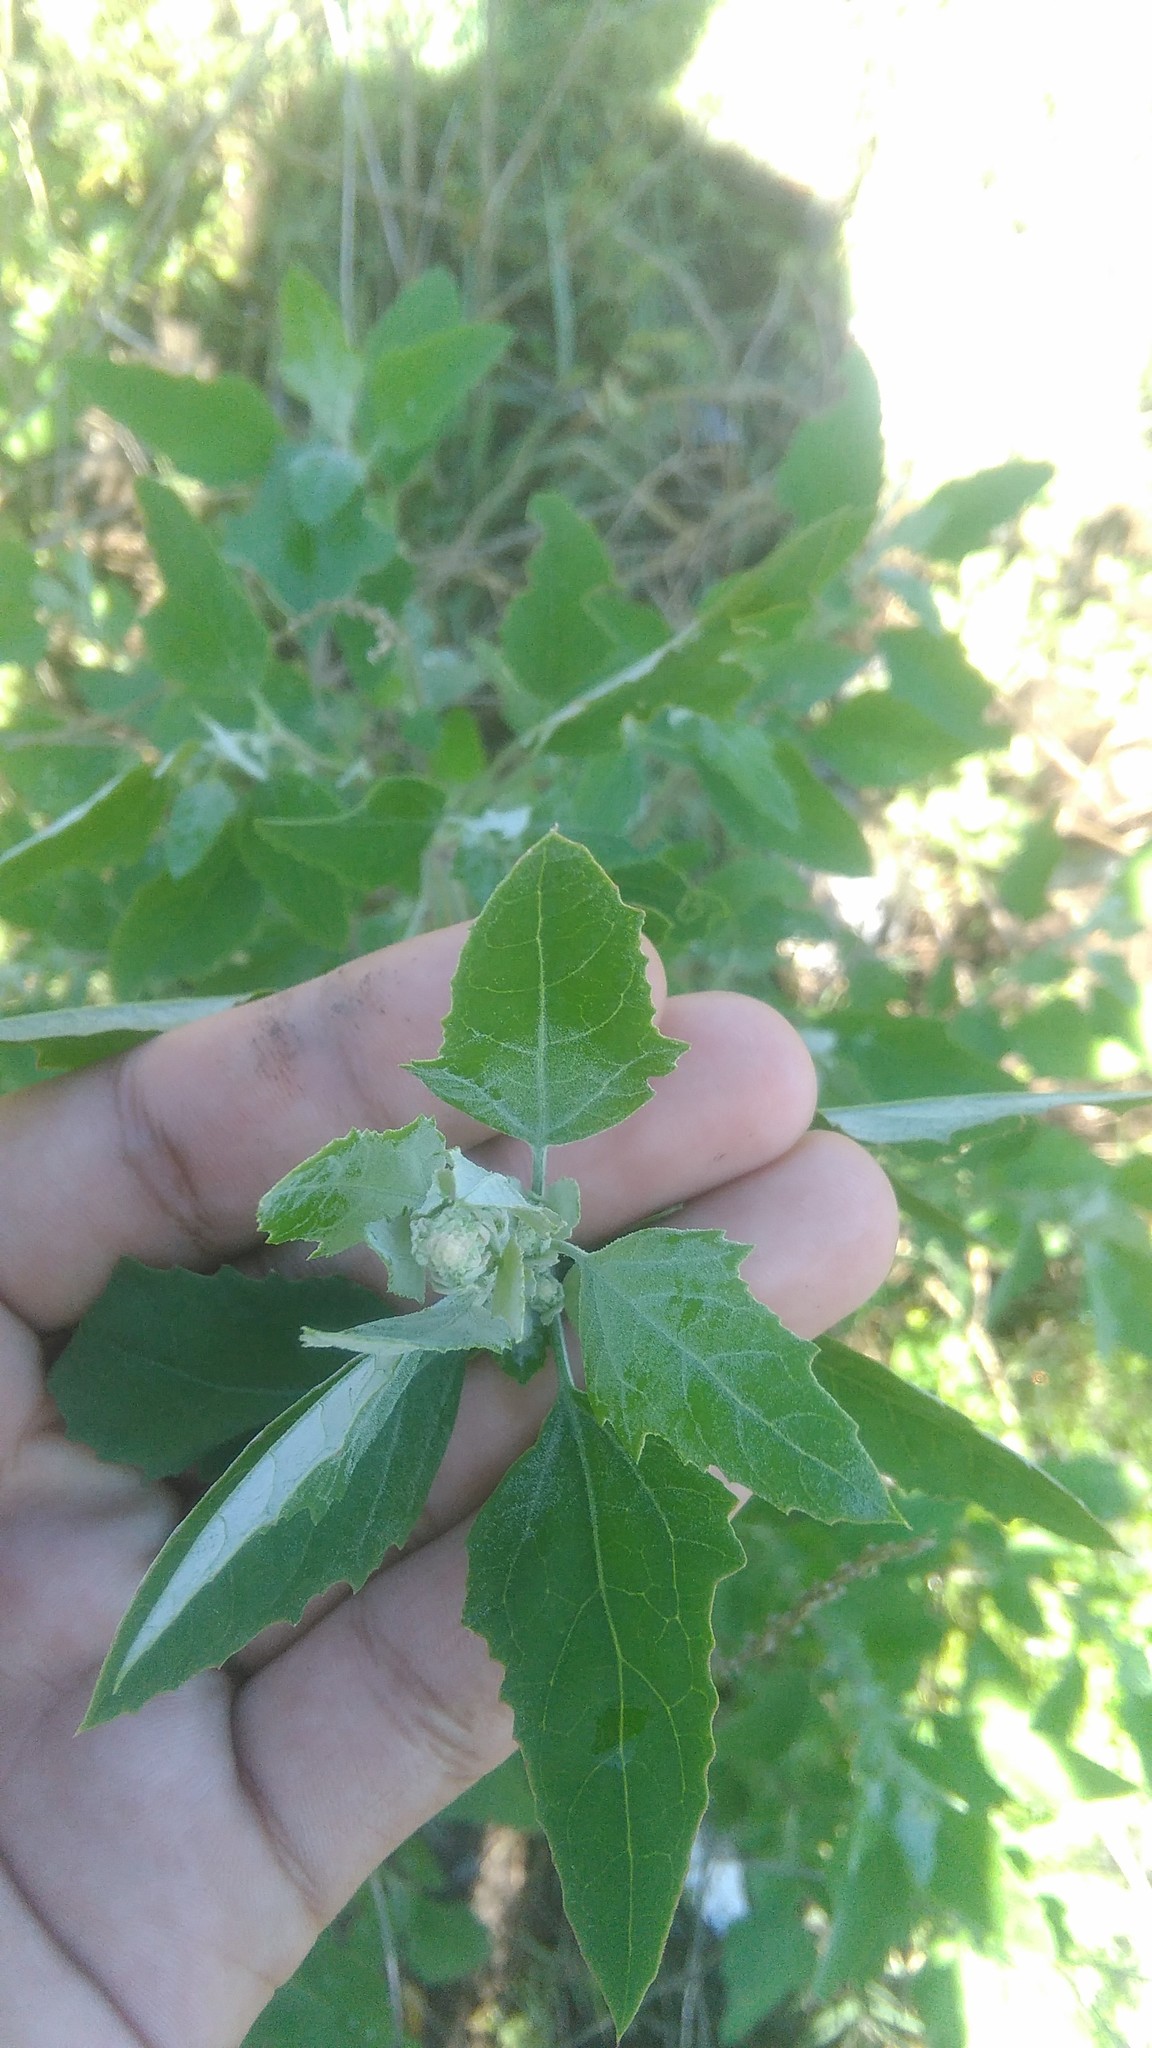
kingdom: Plantae
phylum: Tracheophyta
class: Magnoliopsida
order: Caryophyllales
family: Amaranthaceae
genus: Chenopodium
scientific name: Chenopodium album
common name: Fat-hen
